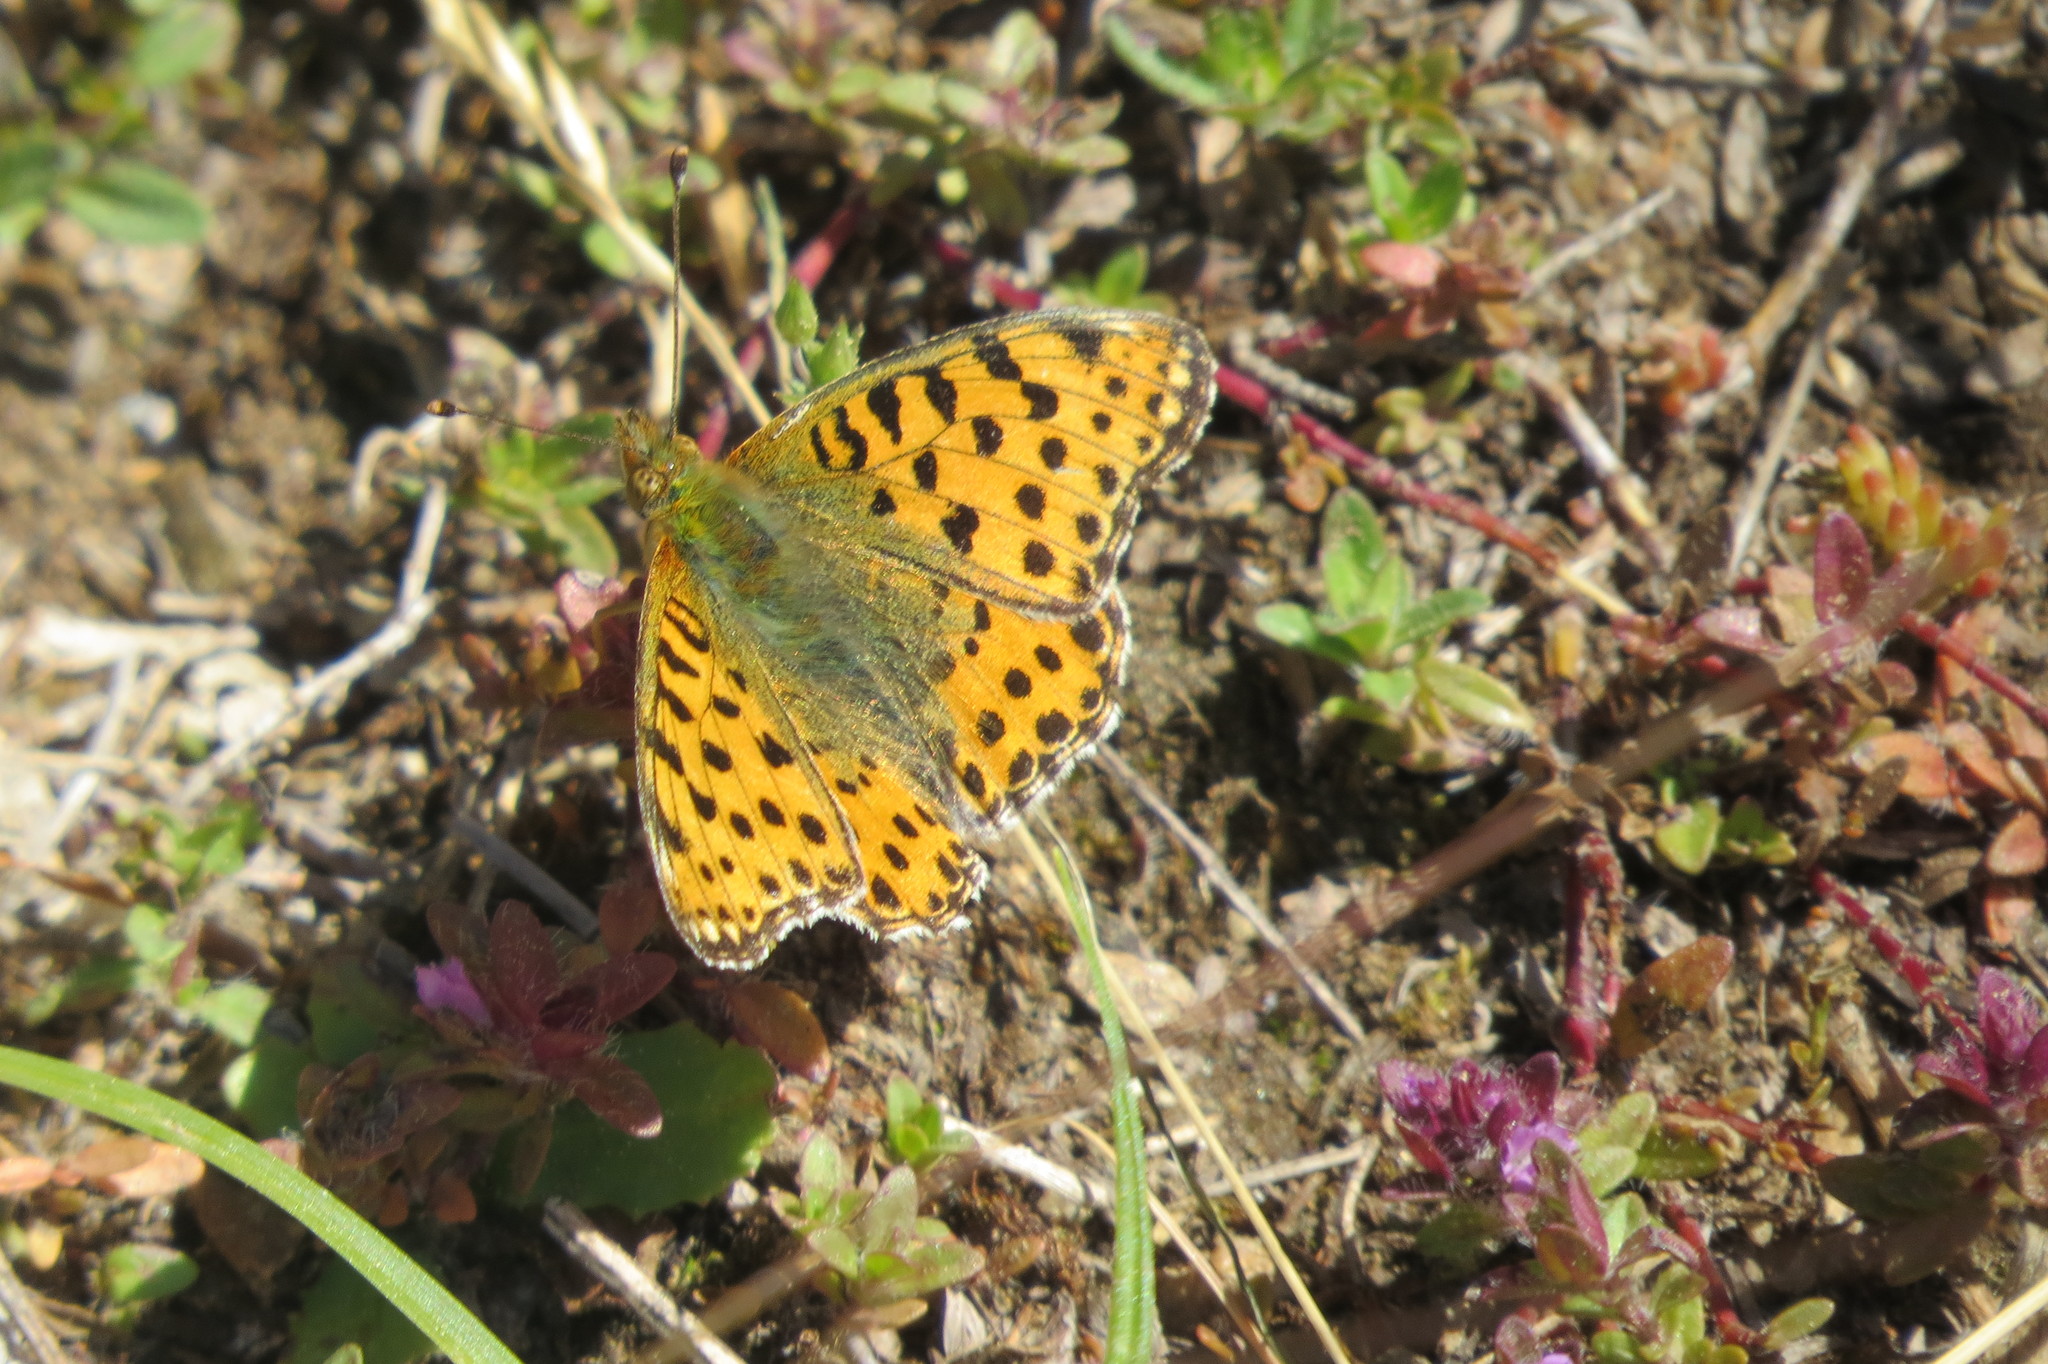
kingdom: Animalia
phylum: Arthropoda
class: Insecta
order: Lepidoptera
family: Nymphalidae
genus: Issoria
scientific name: Issoria lathonia
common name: Queen of spain fritillary
